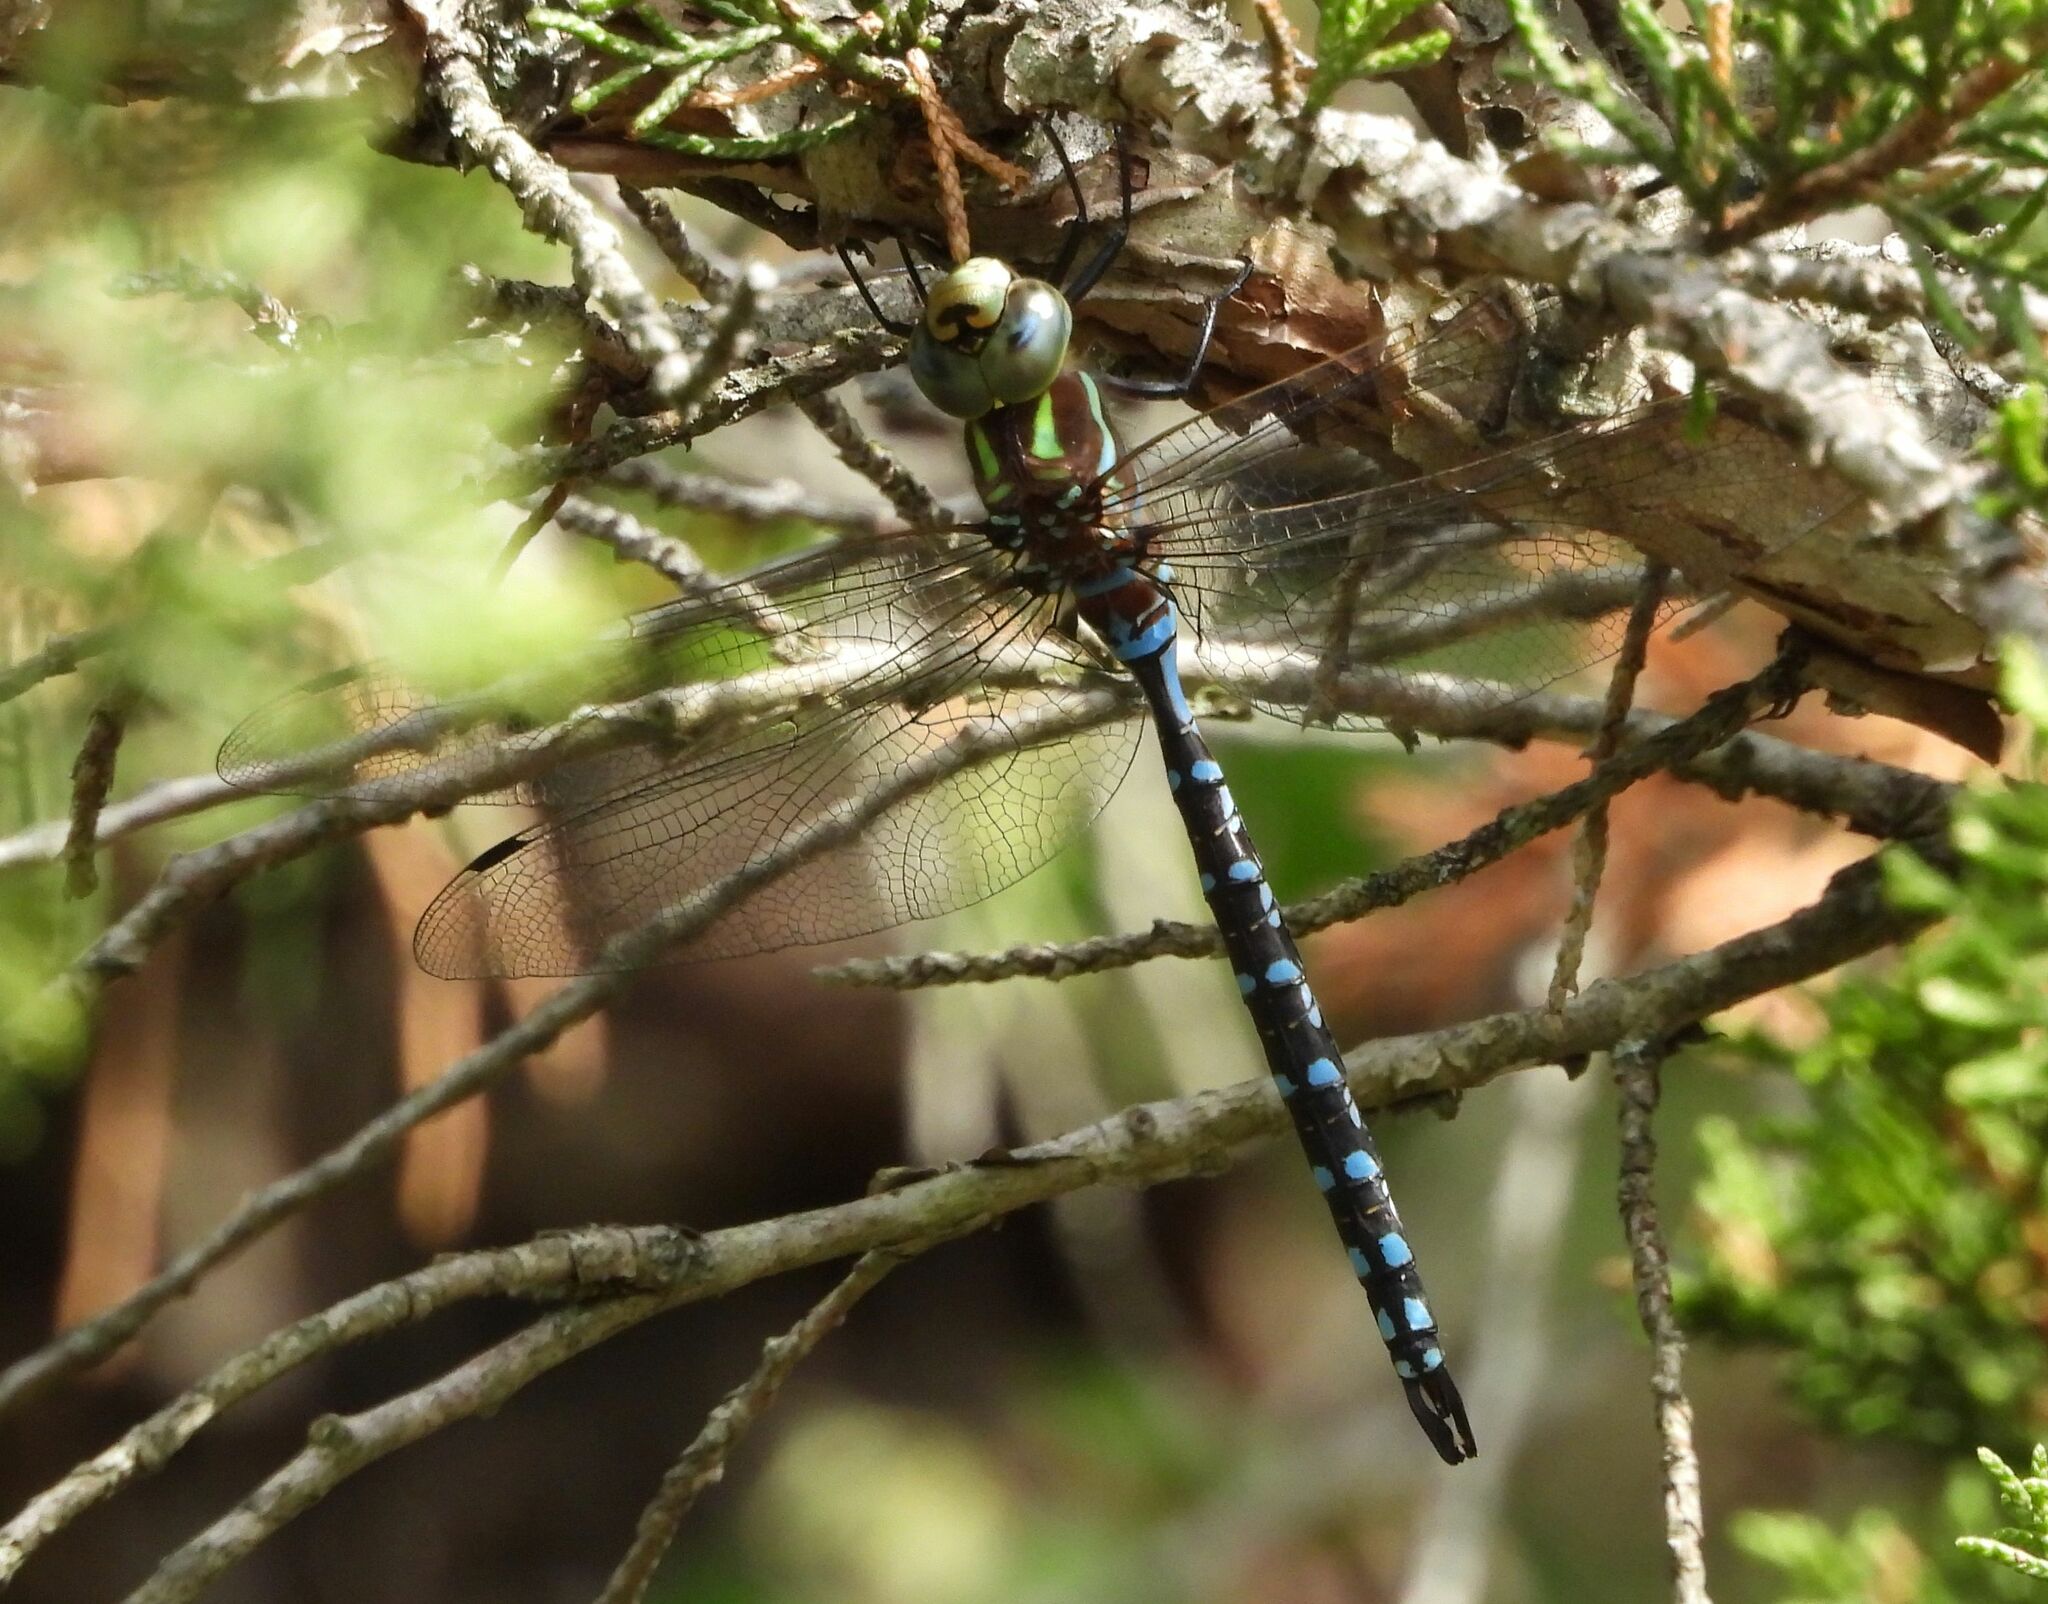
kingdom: Animalia
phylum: Arthropoda
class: Insecta
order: Odonata
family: Aeshnidae
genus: Aeshna
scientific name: Aeshna constricta
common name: Lance-tipped darner
